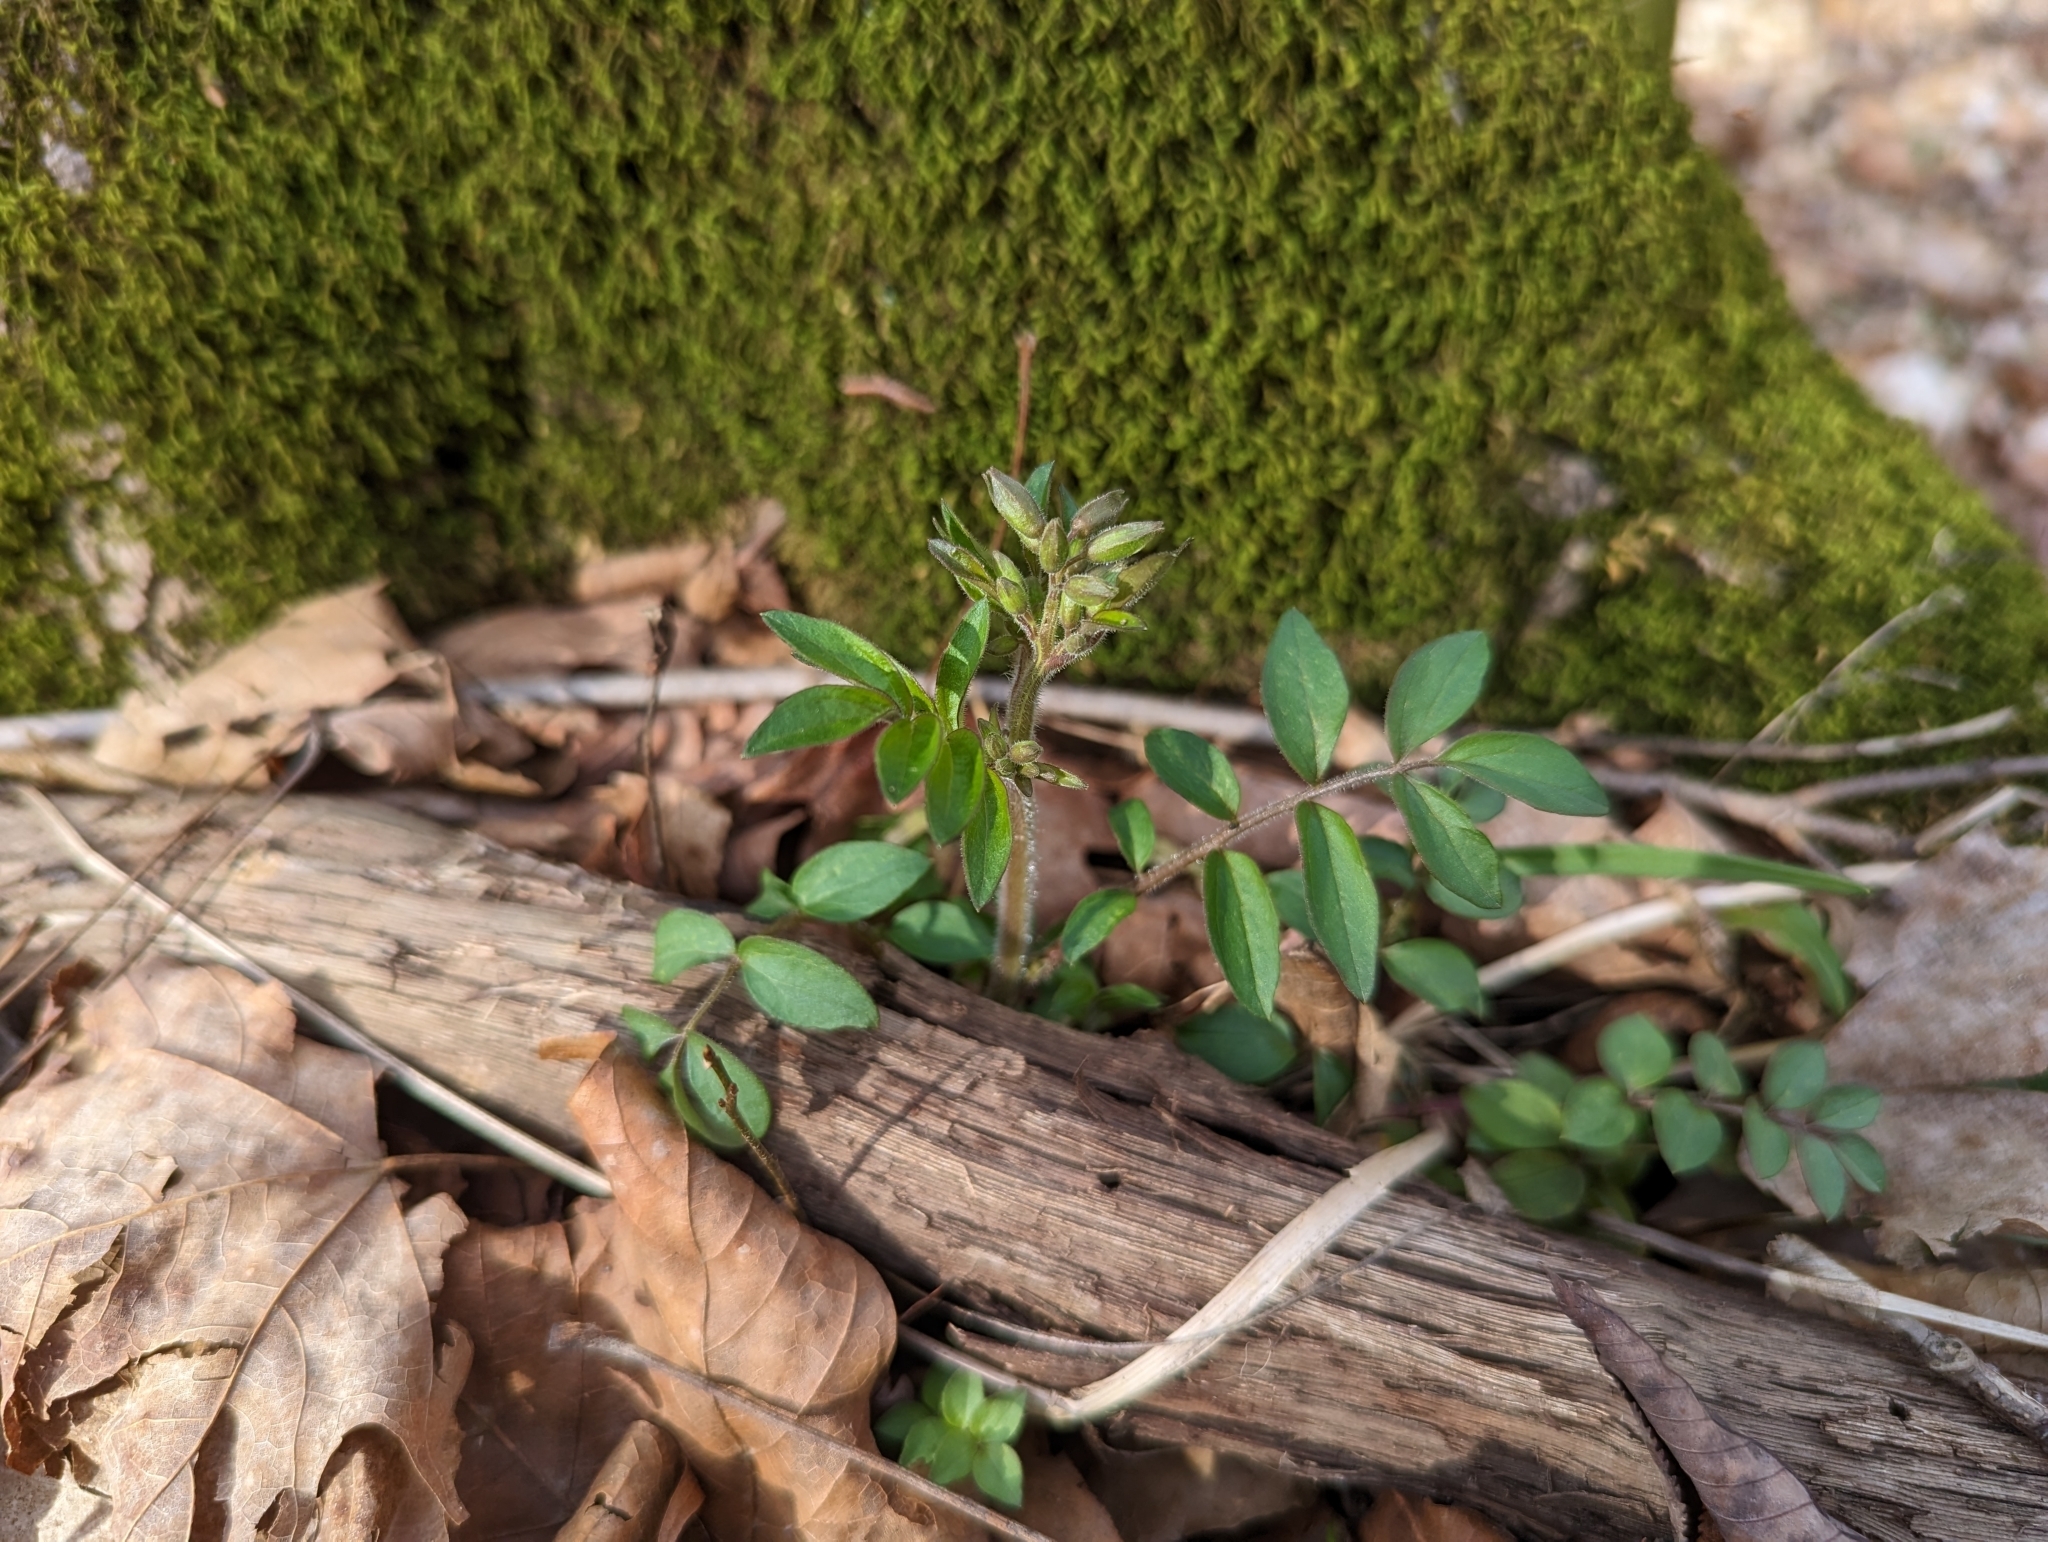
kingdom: Plantae
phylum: Tracheophyta
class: Magnoliopsida
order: Ericales
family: Polemoniaceae
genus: Polemonium
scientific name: Polemonium reptans
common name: Creeping jacob's-ladder
